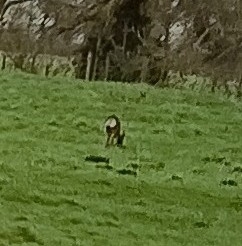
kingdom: Animalia
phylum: Chordata
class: Mammalia
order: Artiodactyla
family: Cervidae
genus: Capreolus
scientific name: Capreolus capreolus
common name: Western roe deer
